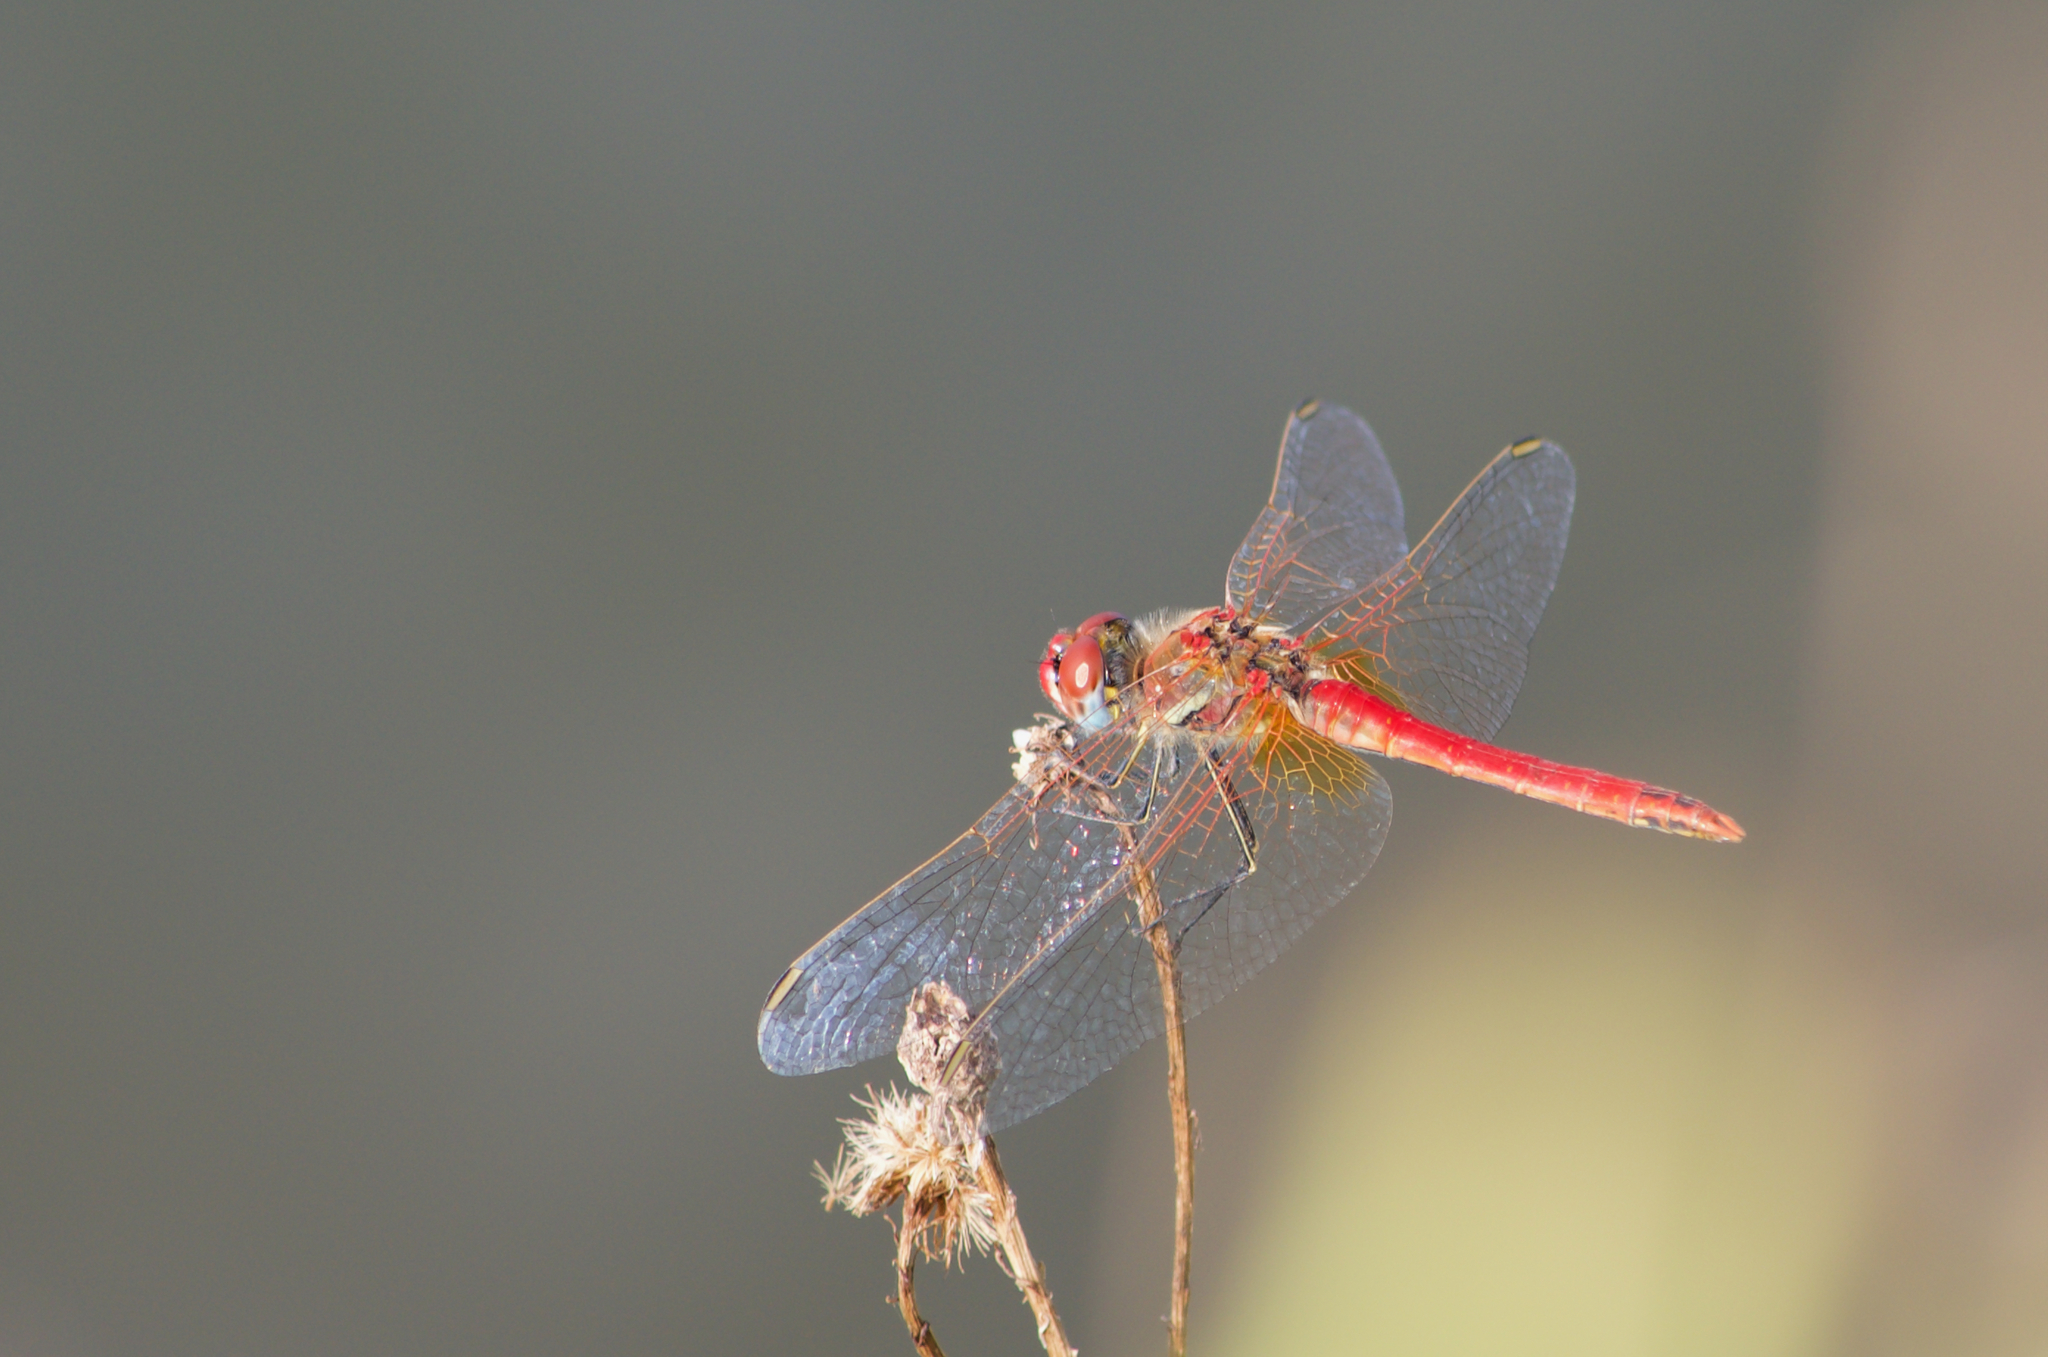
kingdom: Animalia
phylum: Arthropoda
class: Insecta
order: Odonata
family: Libellulidae
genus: Sympetrum
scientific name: Sympetrum fonscolombii
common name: Red-veined darter
